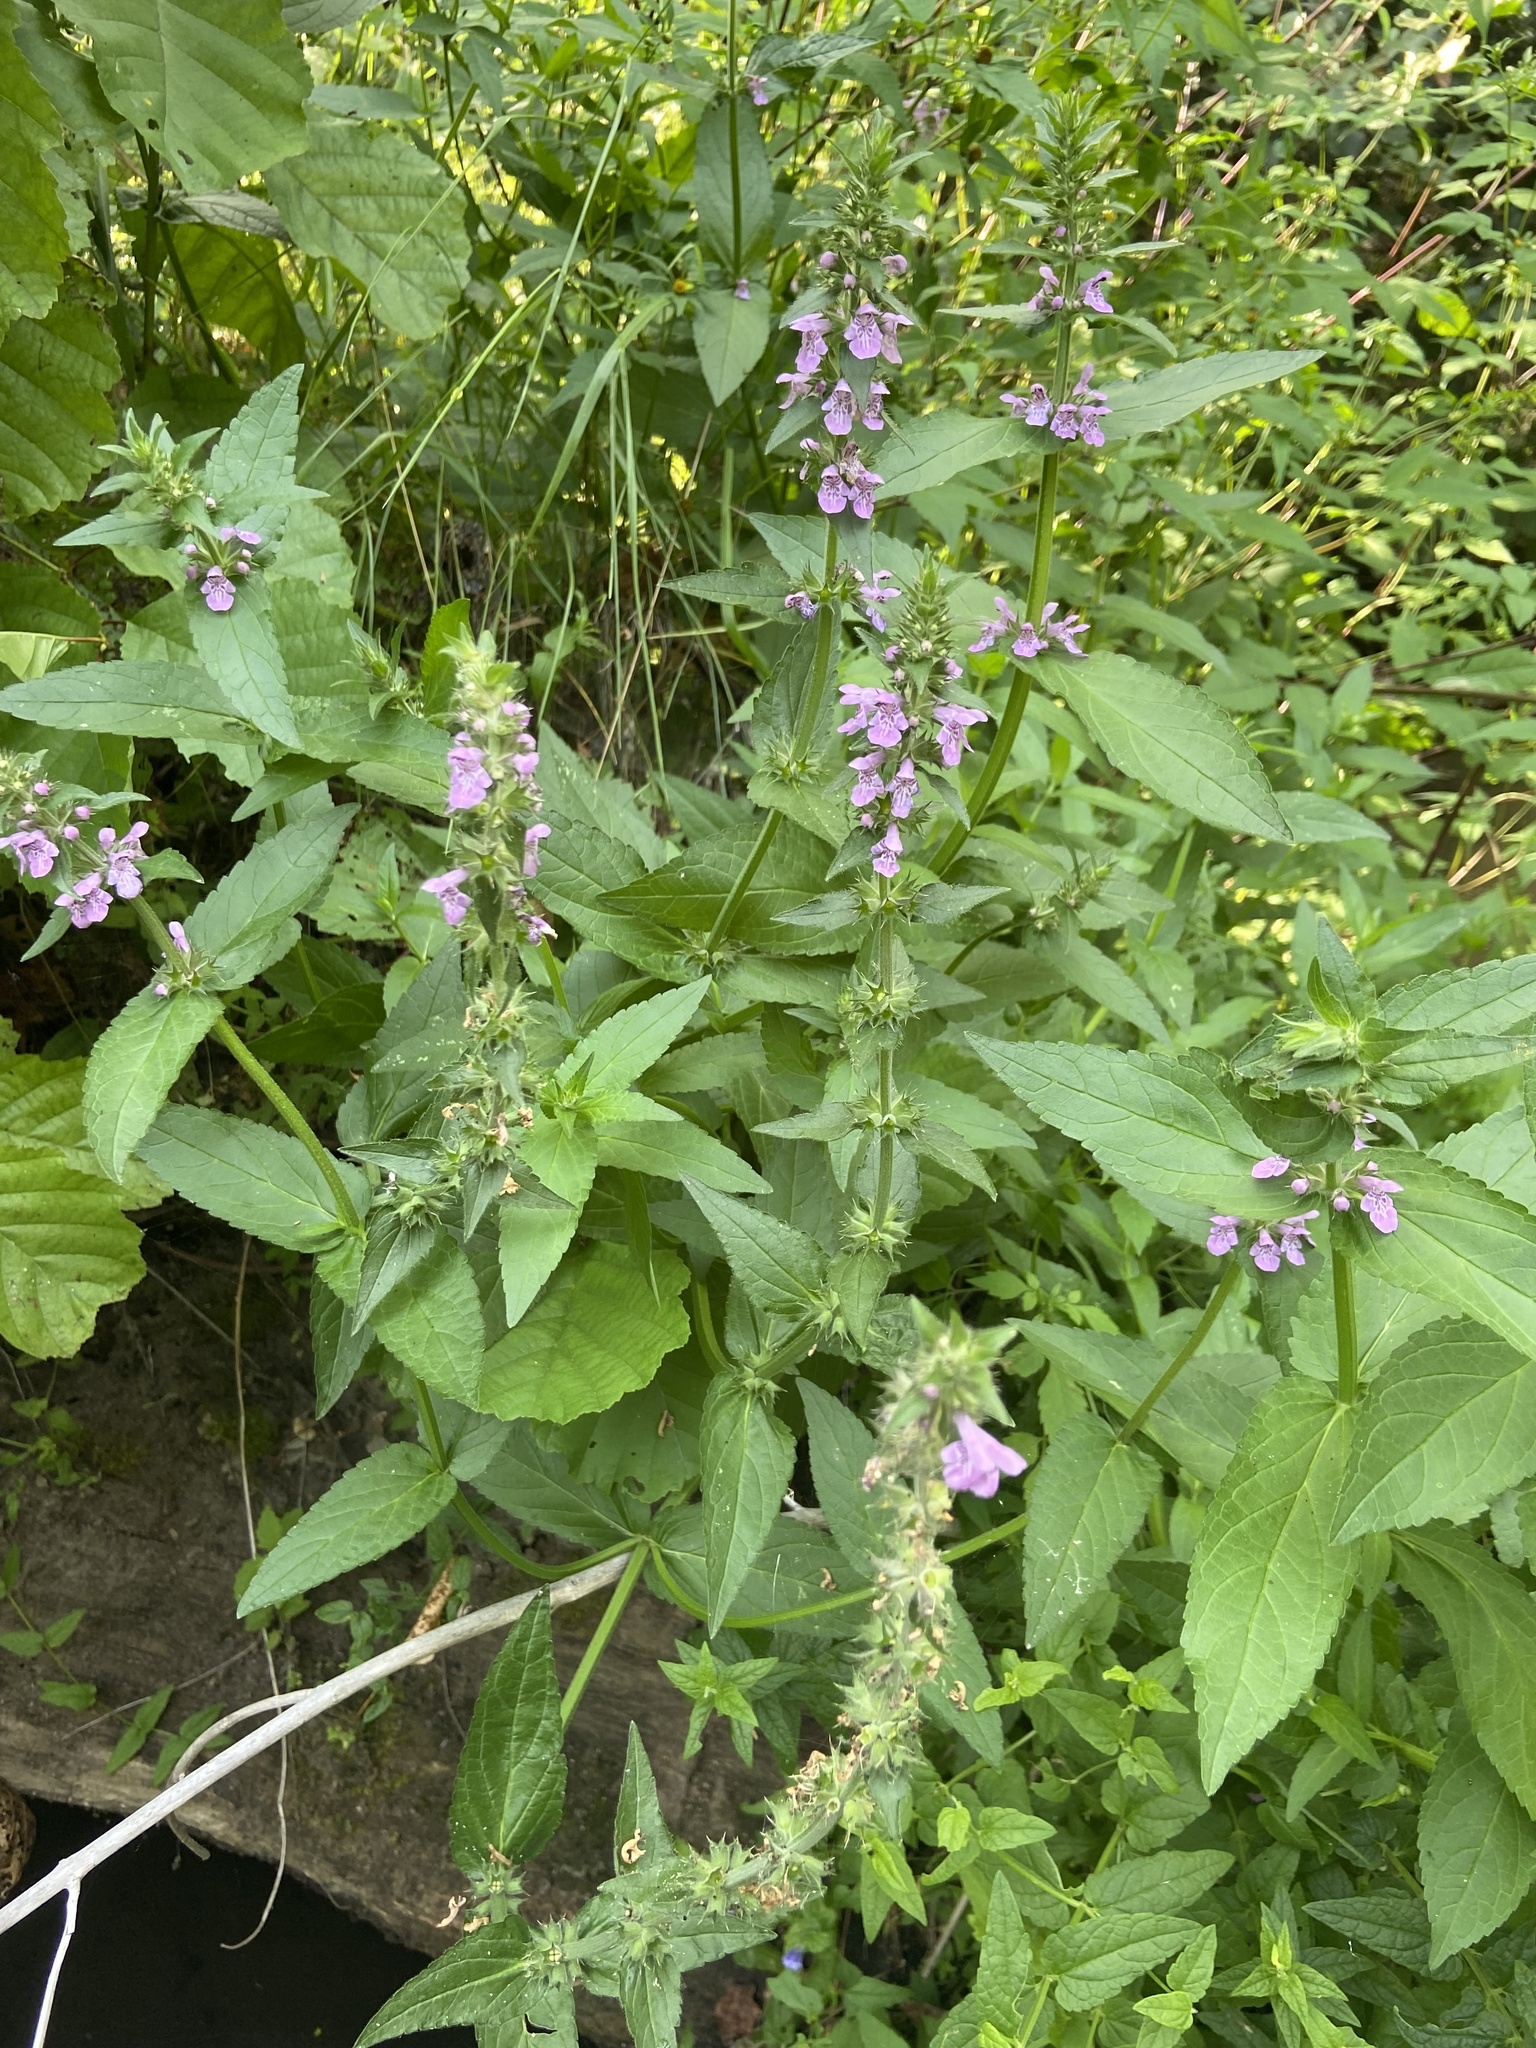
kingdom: Plantae
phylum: Tracheophyta
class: Magnoliopsida
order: Lamiales
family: Lamiaceae
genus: Stachys
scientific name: Stachys palustris
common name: Marsh woundwort
